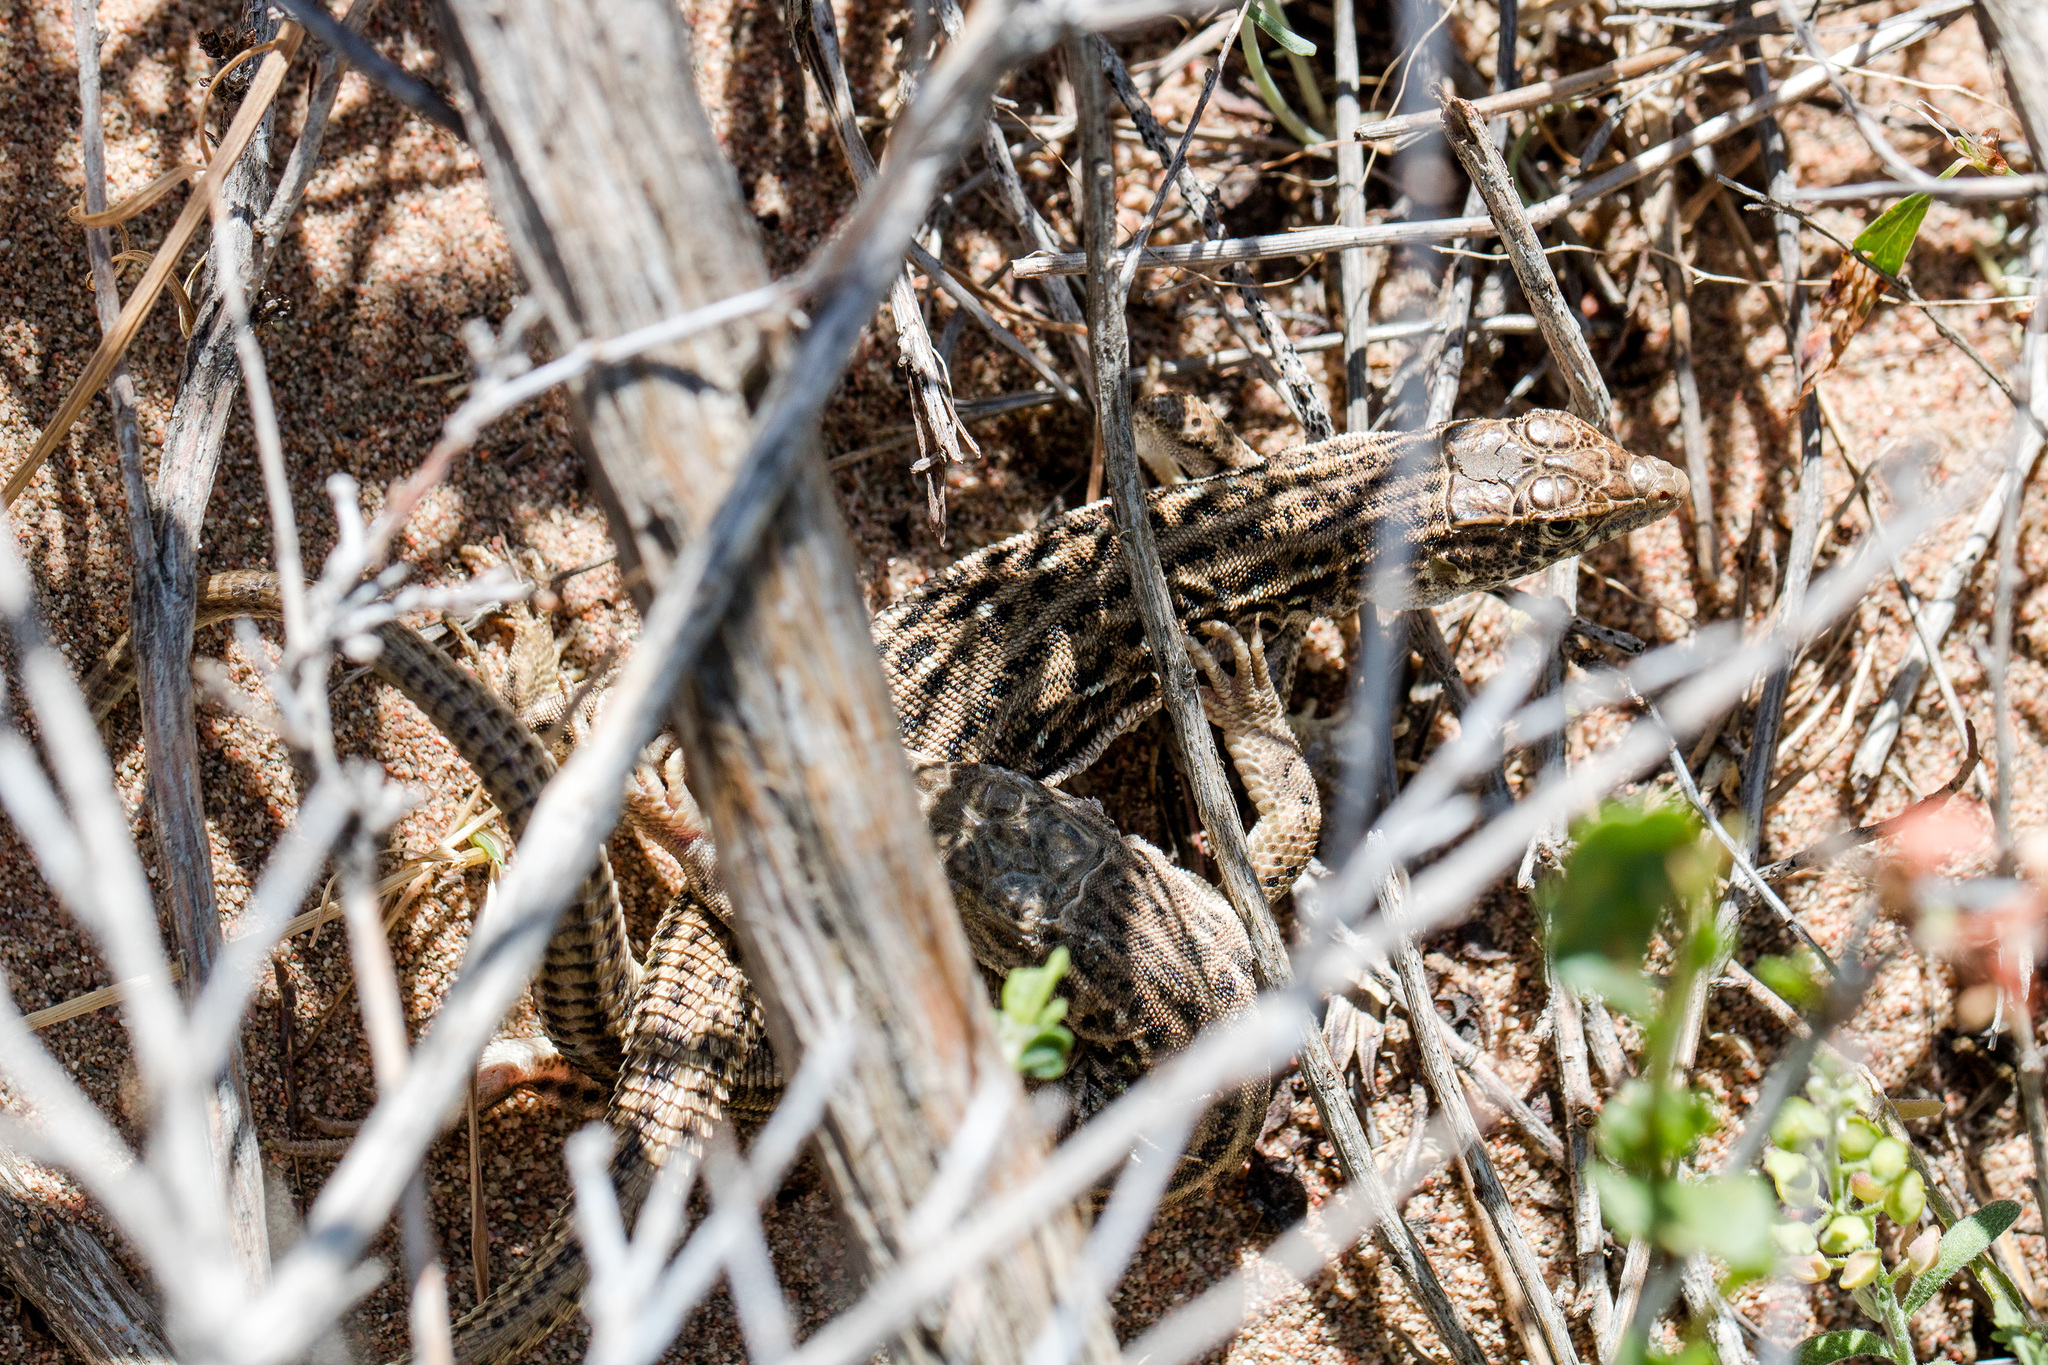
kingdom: Animalia
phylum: Chordata
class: Squamata
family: Lacertidae
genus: Eremias
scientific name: Eremias velox
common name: Central asian racerunner
